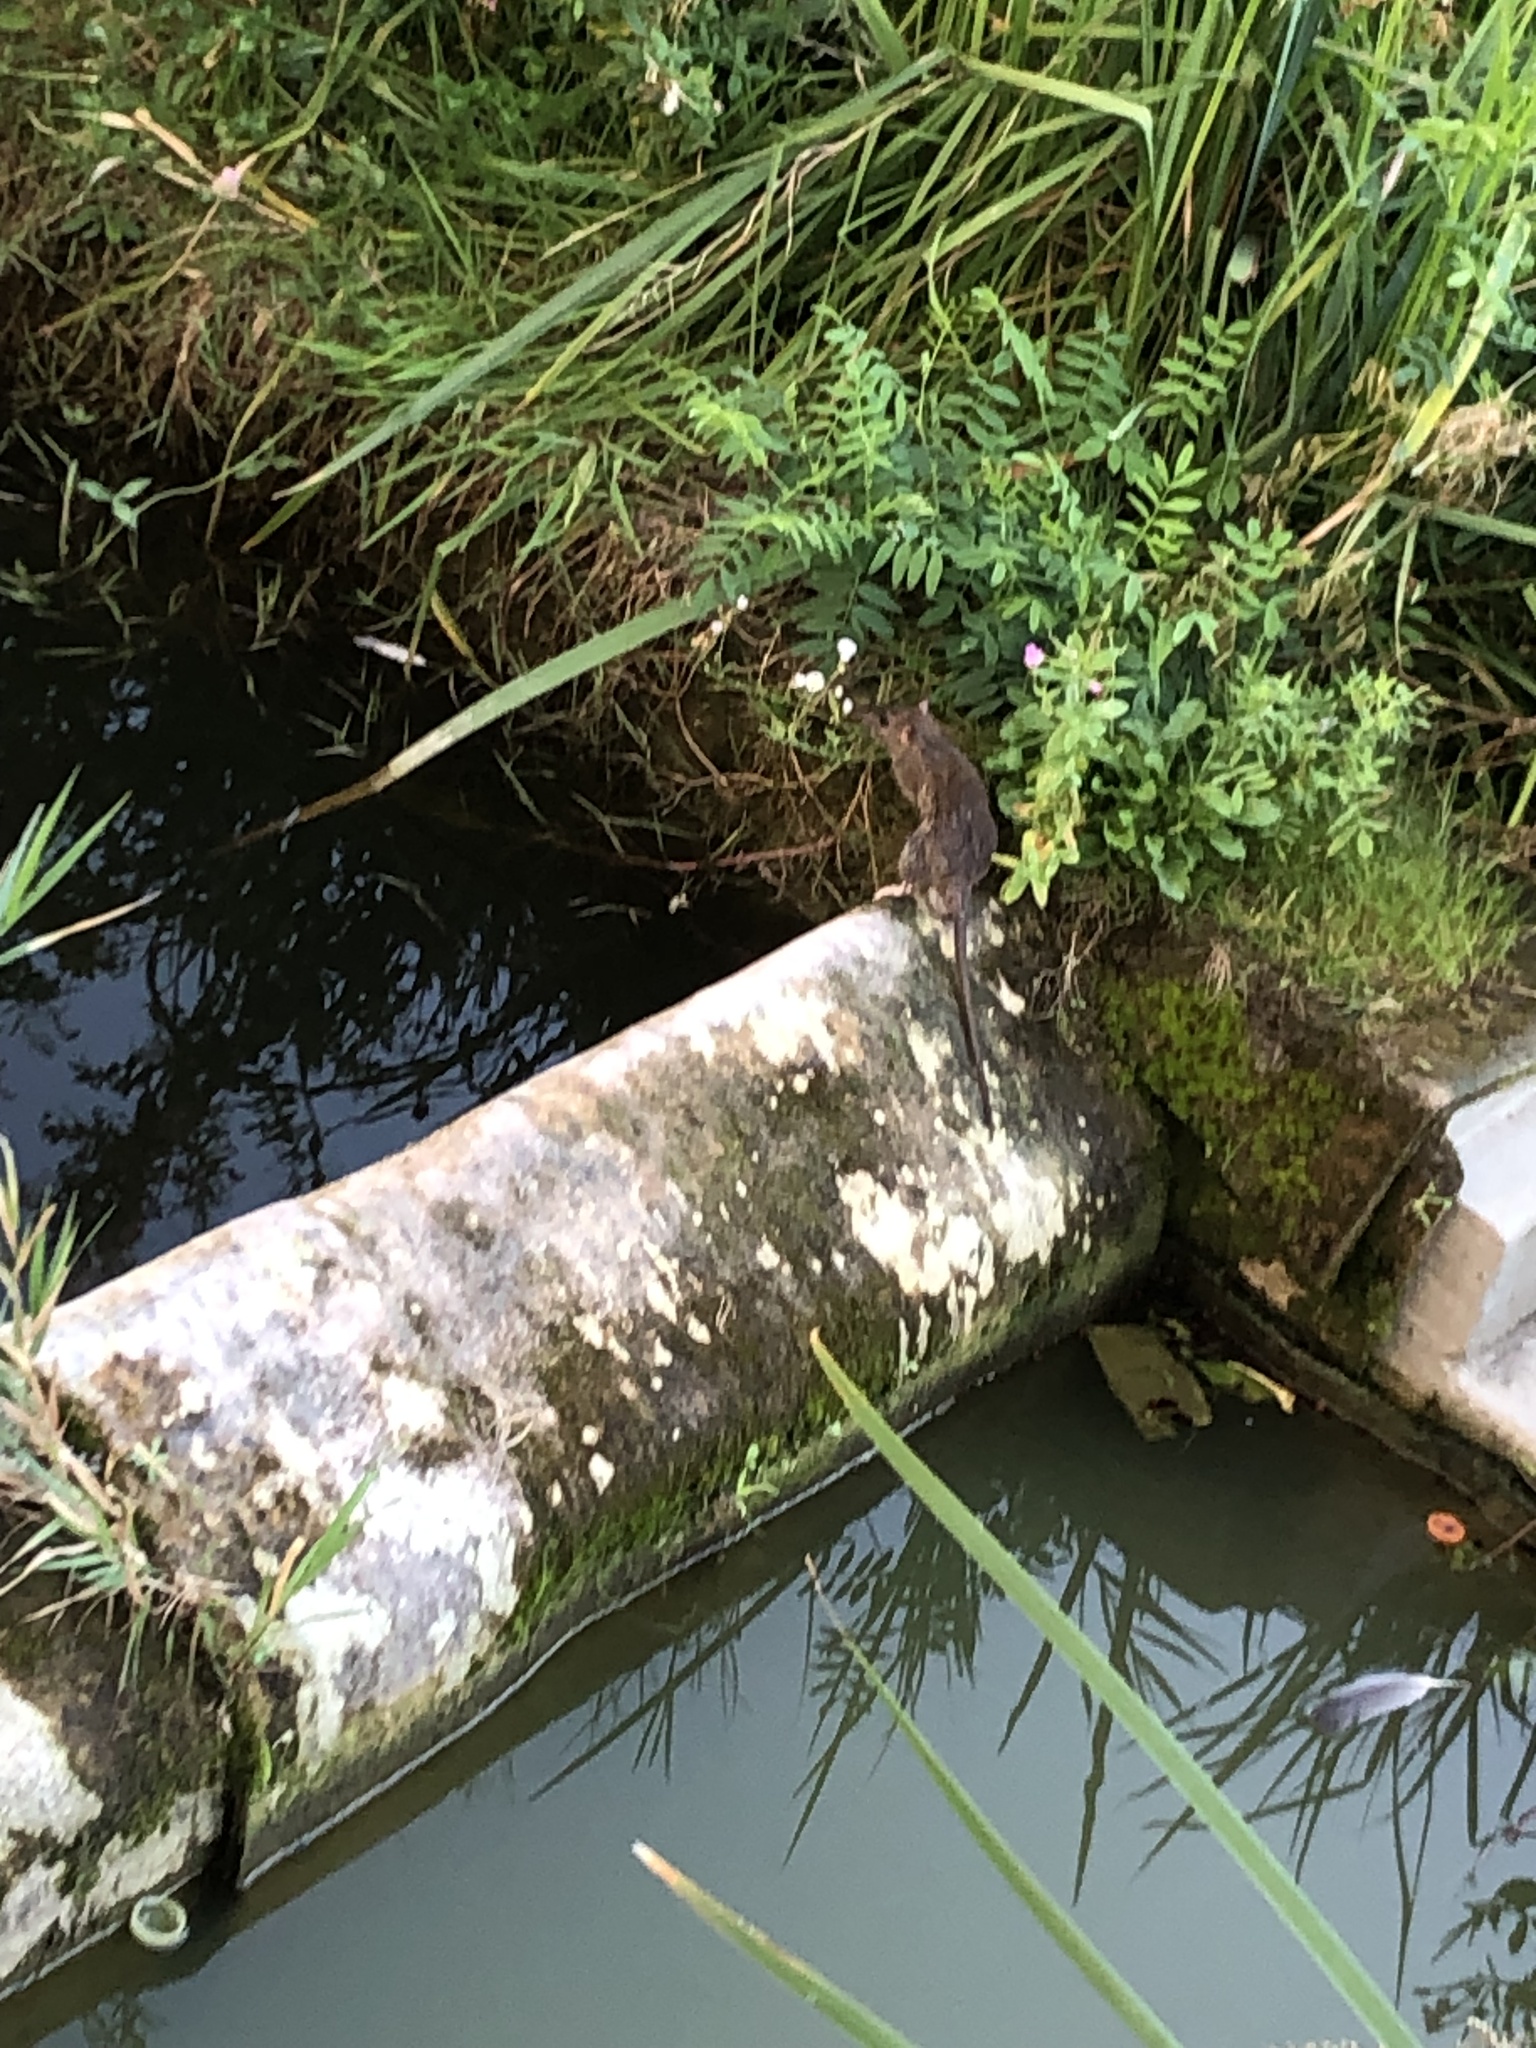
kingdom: Animalia
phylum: Chordata
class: Mammalia
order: Rodentia
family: Muridae
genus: Rattus
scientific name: Rattus norvegicus
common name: Brown rat
